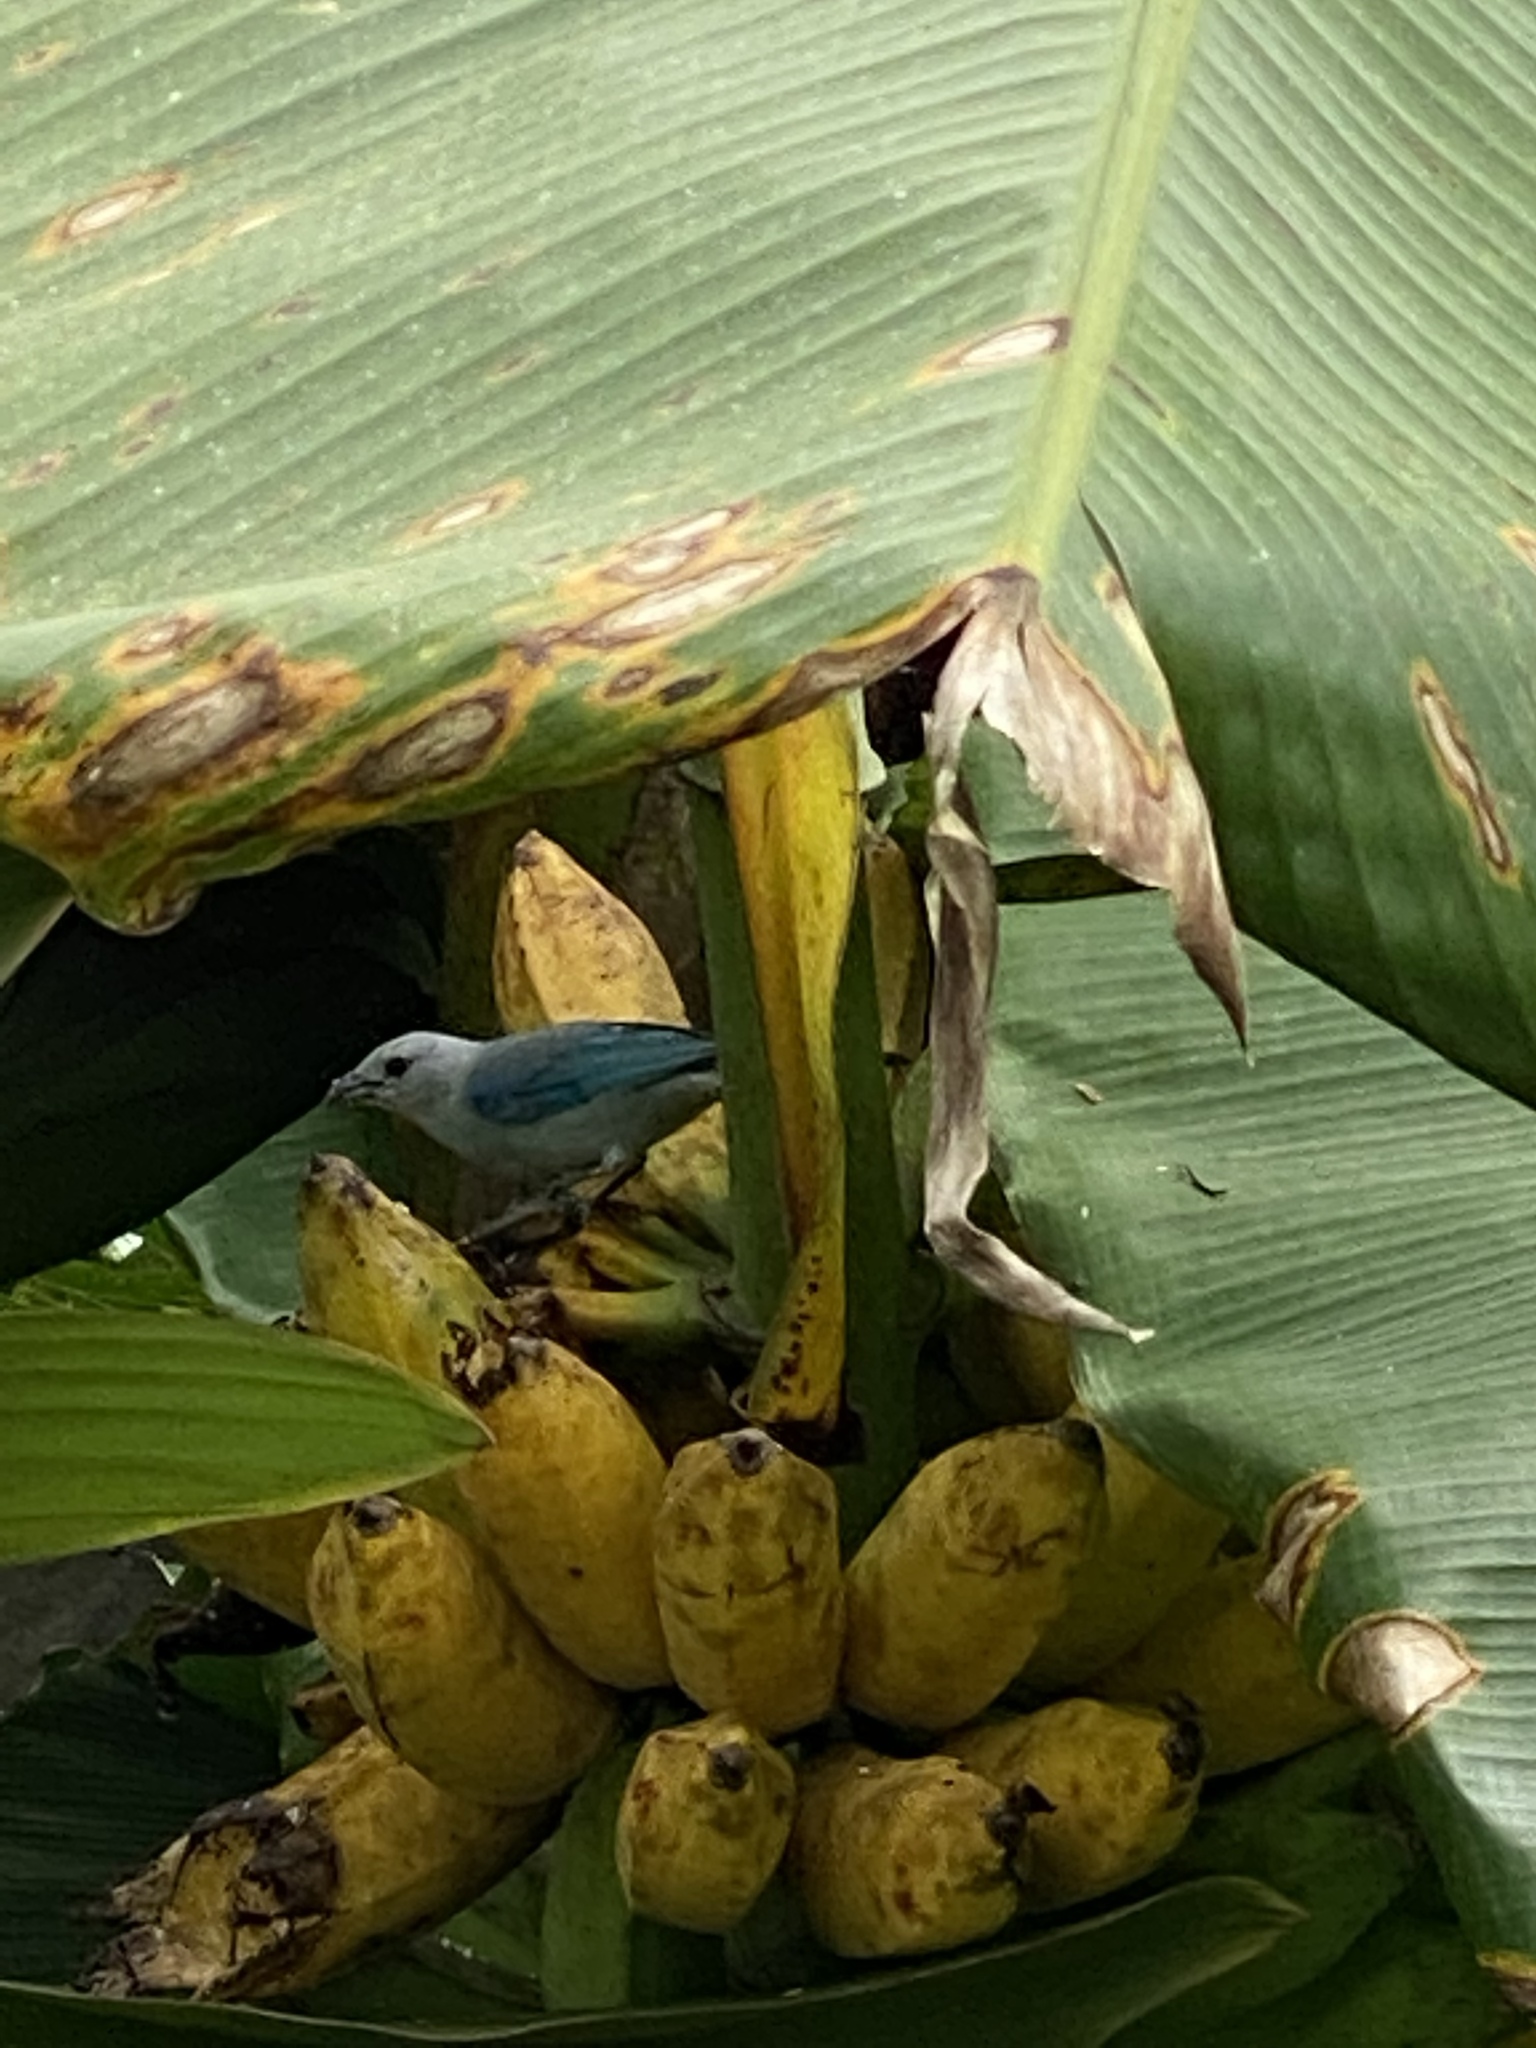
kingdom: Animalia
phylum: Chordata
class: Aves
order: Passeriformes
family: Thraupidae
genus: Thraupis
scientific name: Thraupis episcopus
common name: Blue-grey tanager
